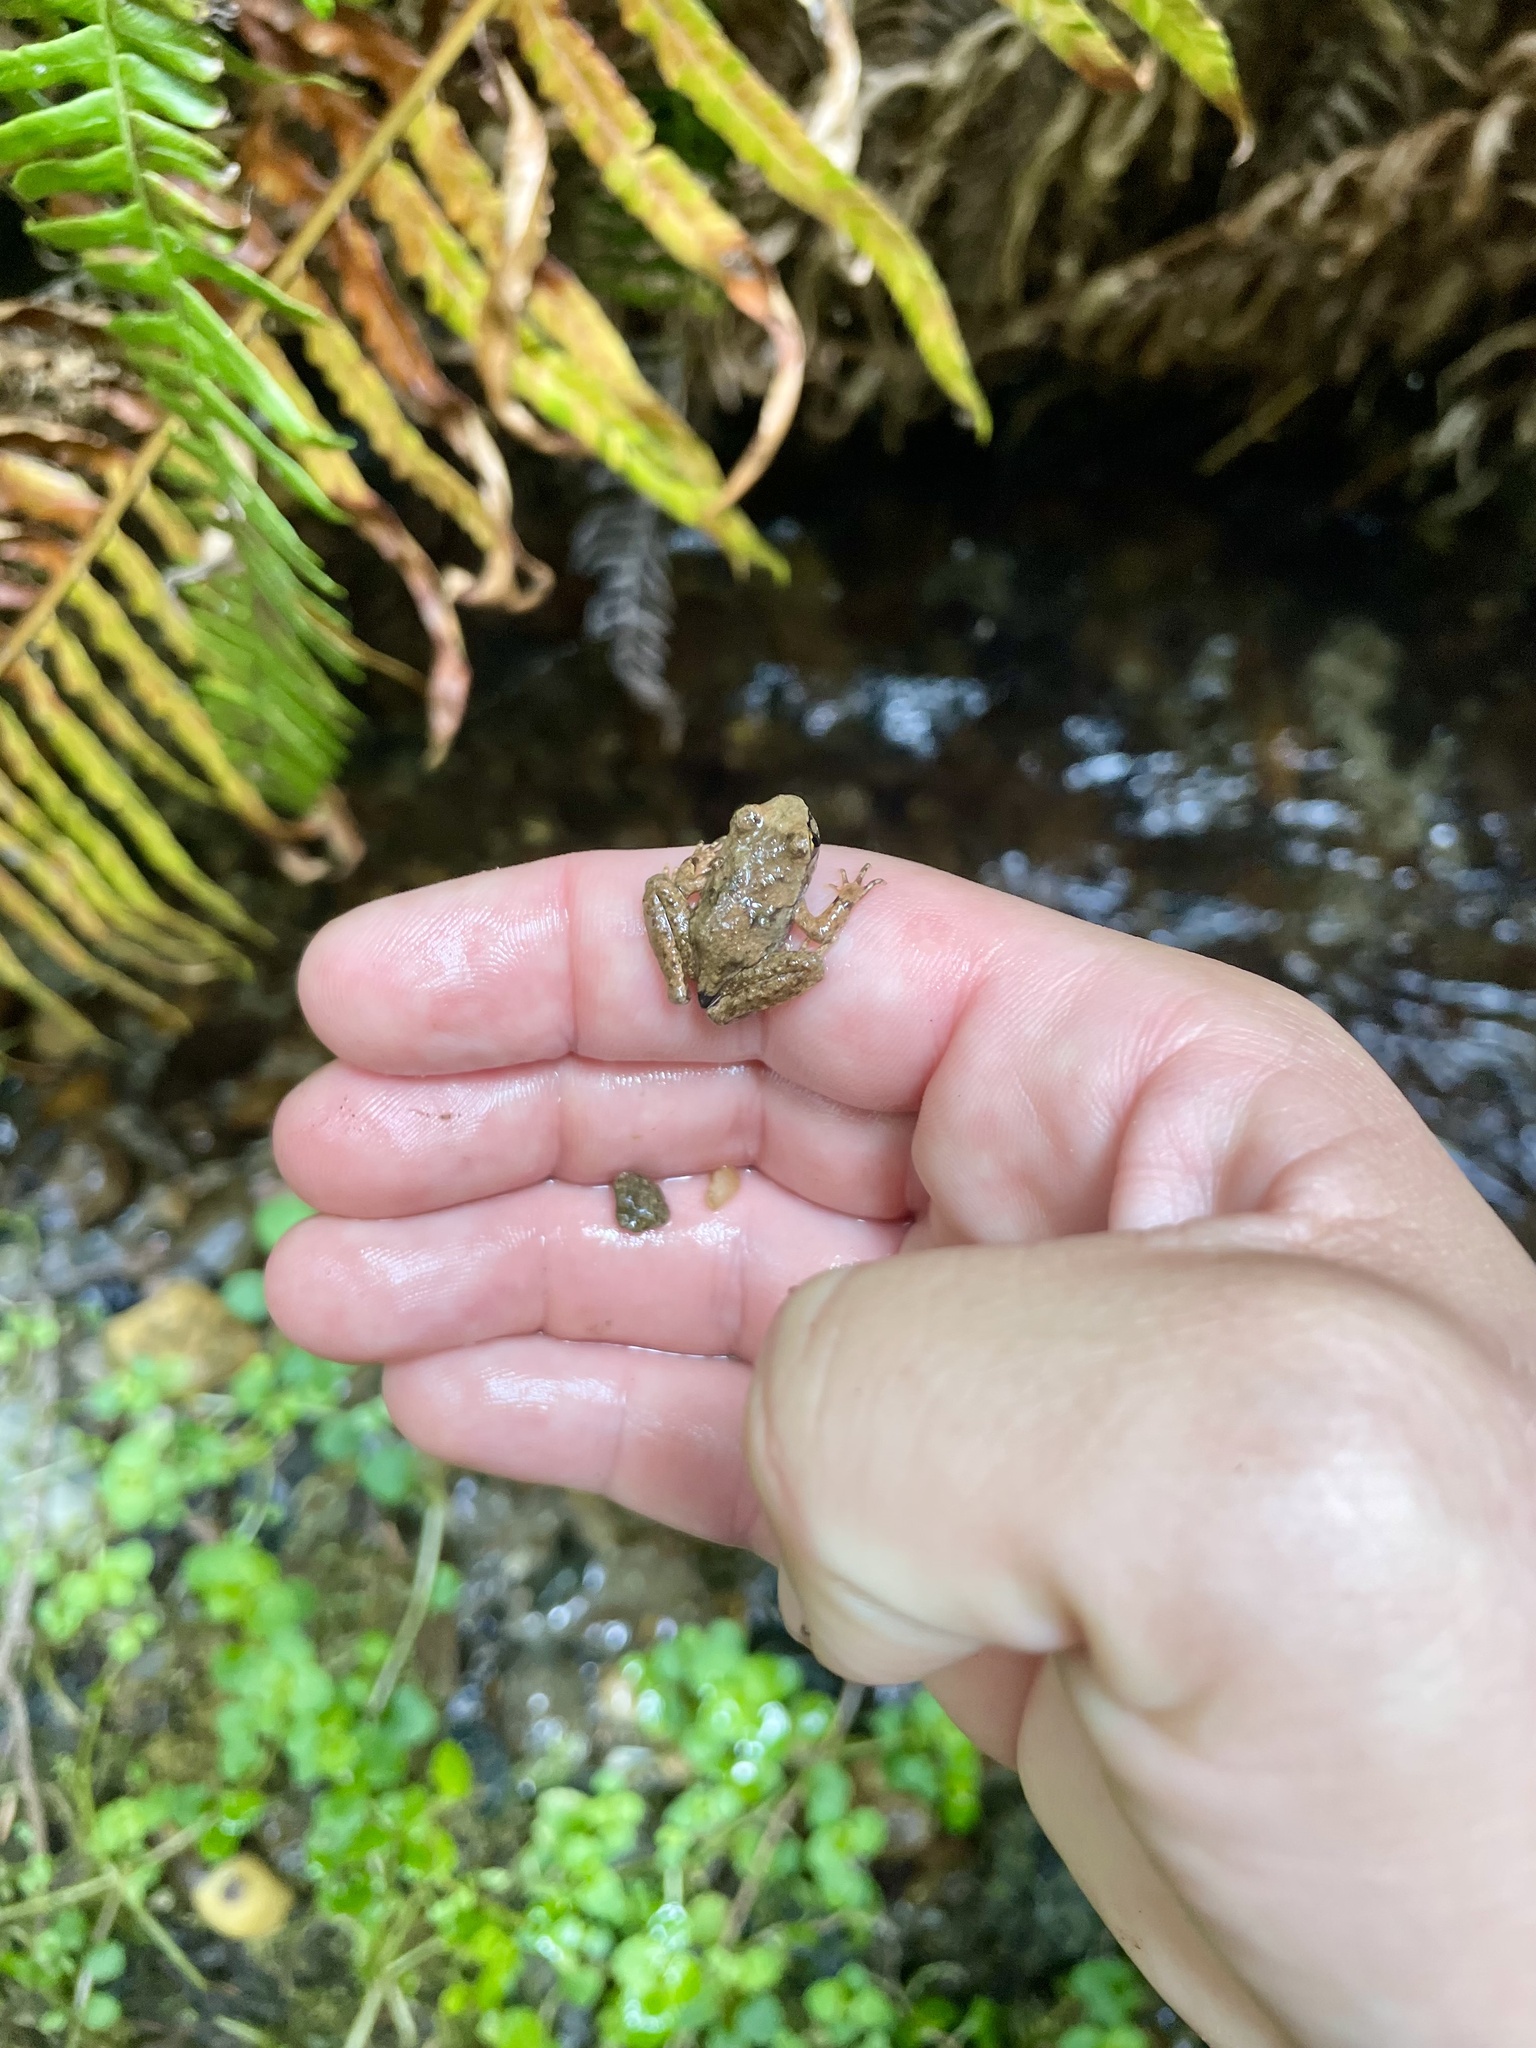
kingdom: Animalia
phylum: Chordata
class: Amphibia
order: Anura
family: Ascaphidae
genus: Ascaphus
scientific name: Ascaphus truei
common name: Tailed frog
